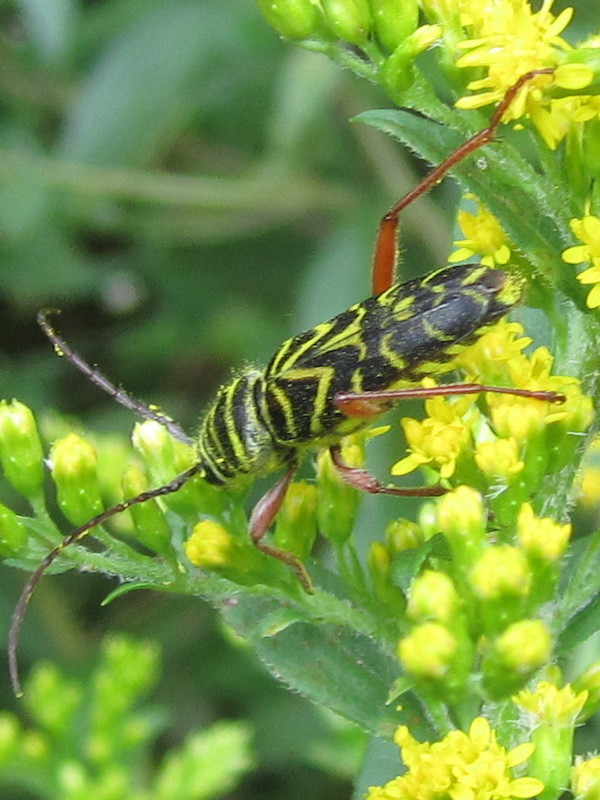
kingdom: Animalia
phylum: Arthropoda
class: Insecta
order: Coleoptera
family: Cerambycidae
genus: Megacyllene
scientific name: Megacyllene robiniae
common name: Locust borer
